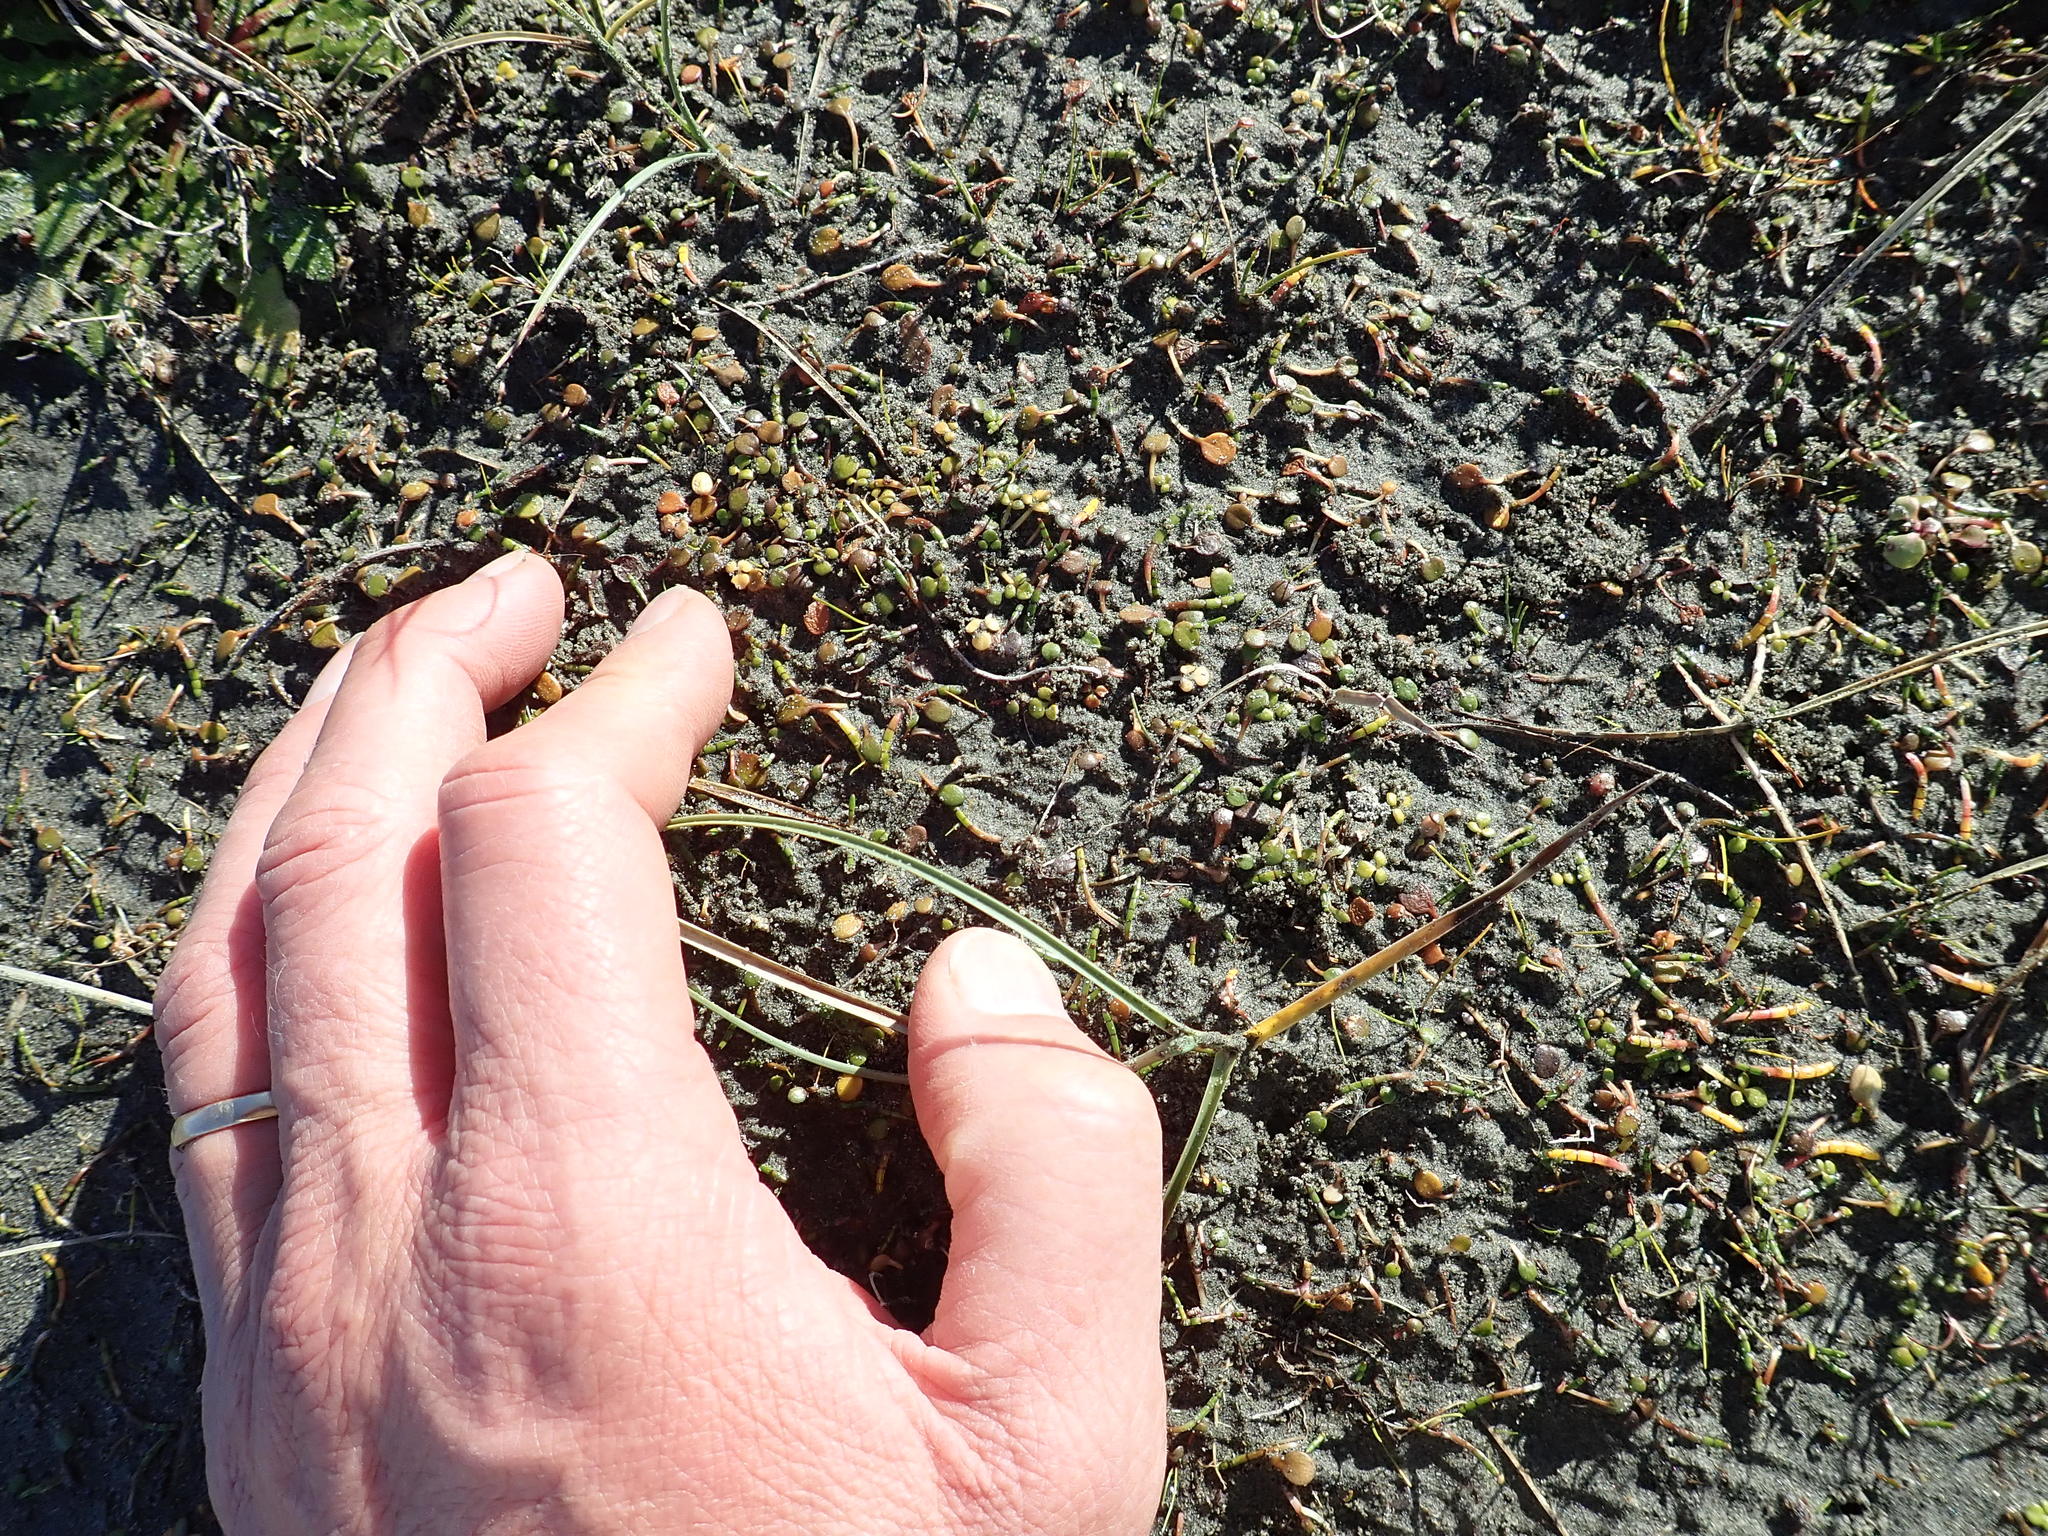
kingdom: Plantae
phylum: Tracheophyta
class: Magnoliopsida
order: Ranunculales
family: Ranunculaceae
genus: Ranunculus
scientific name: Ranunculus acaulis
